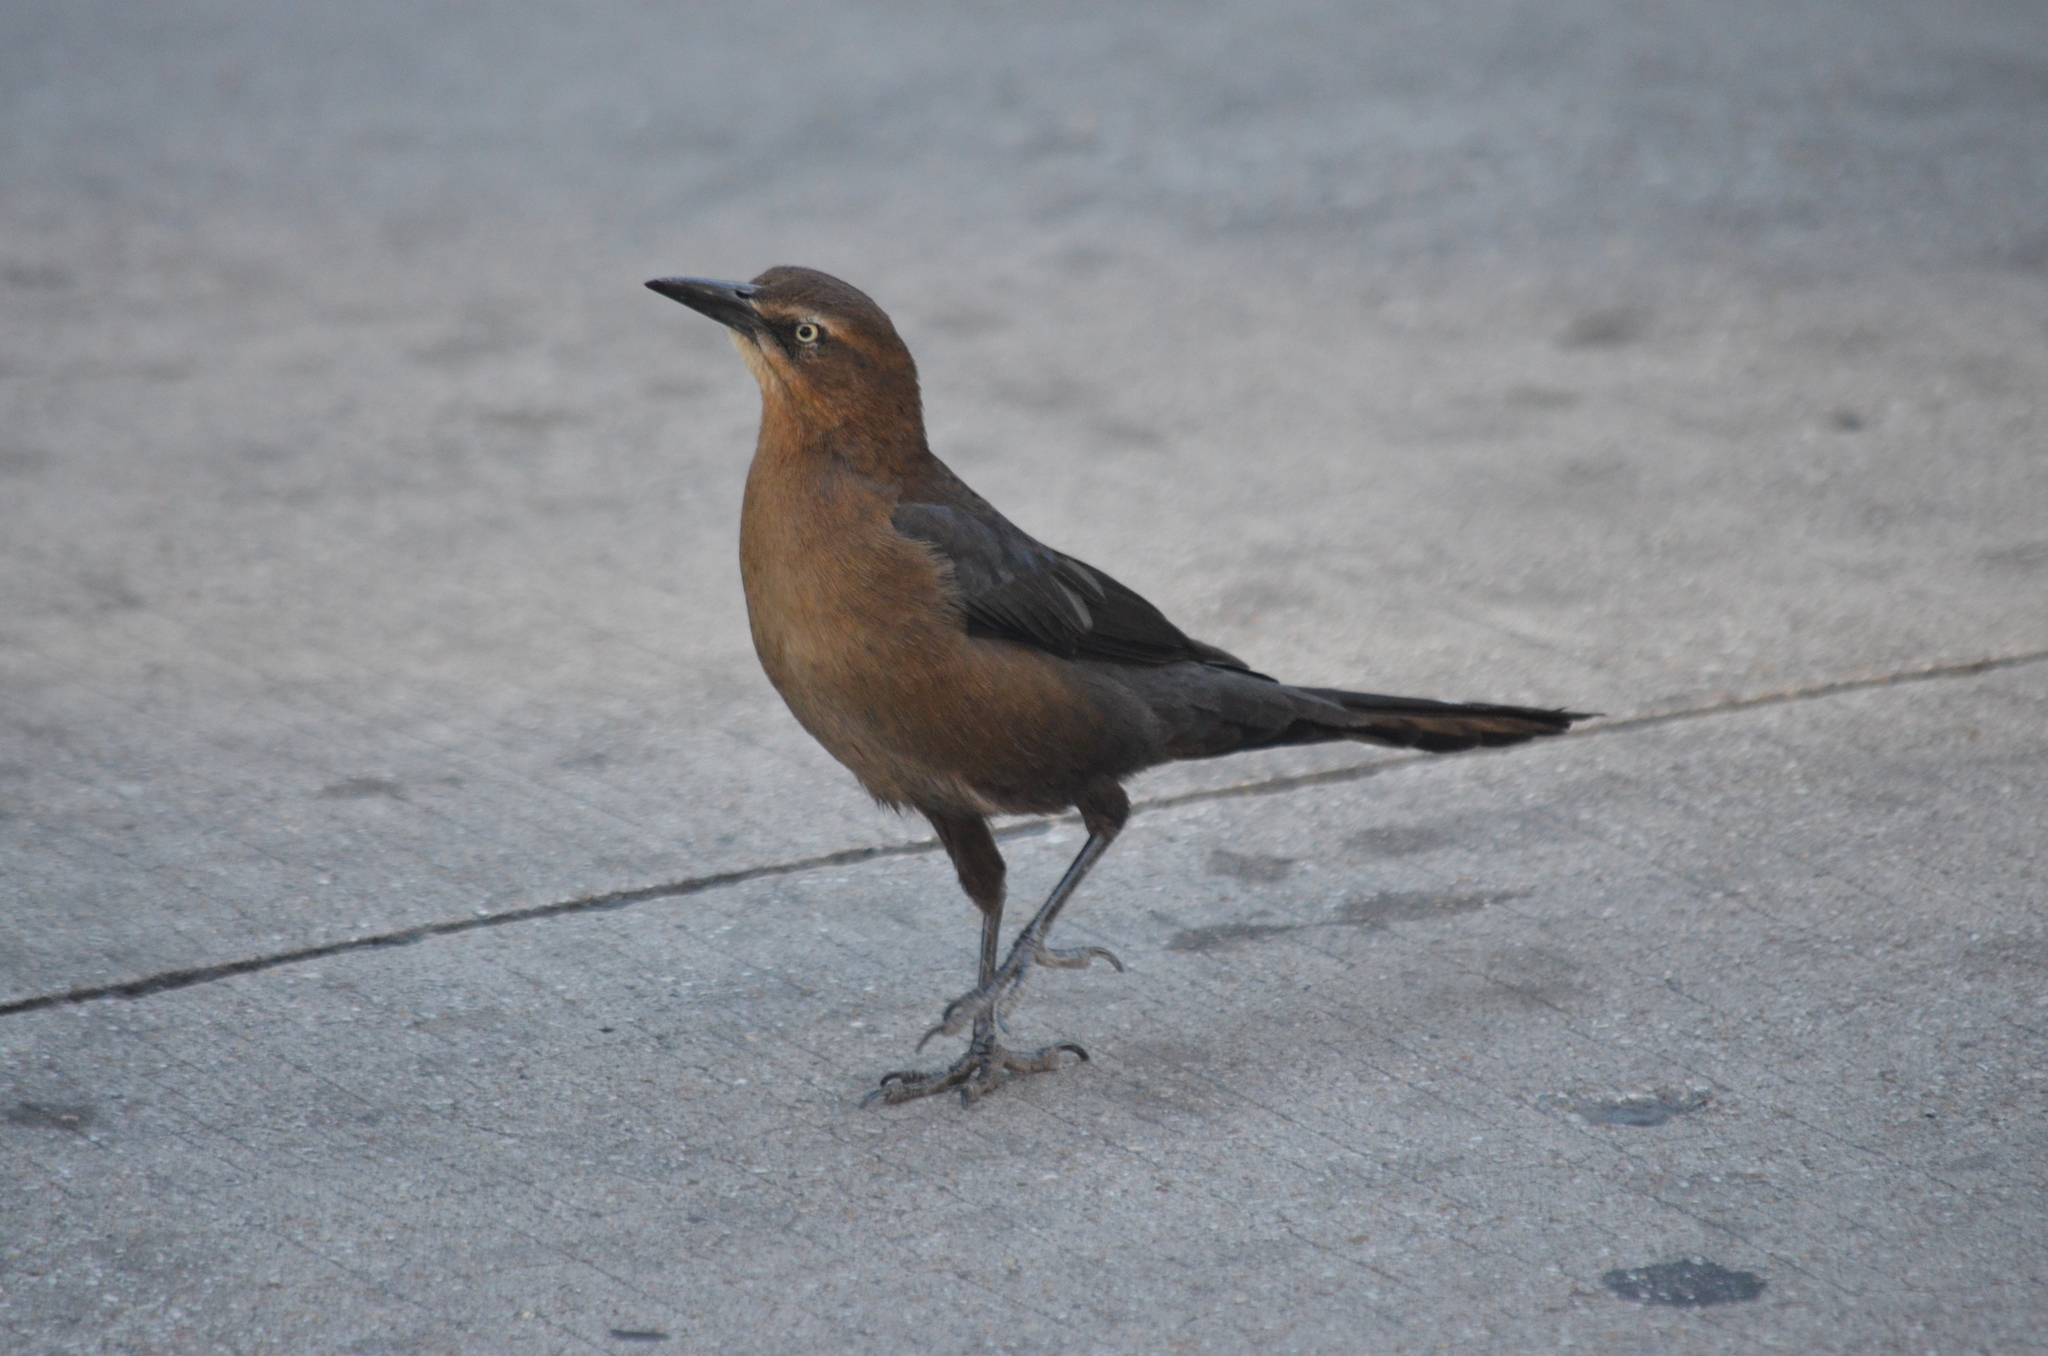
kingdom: Animalia
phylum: Chordata
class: Aves
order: Passeriformes
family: Icteridae
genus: Quiscalus
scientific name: Quiscalus mexicanus
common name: Great-tailed grackle
